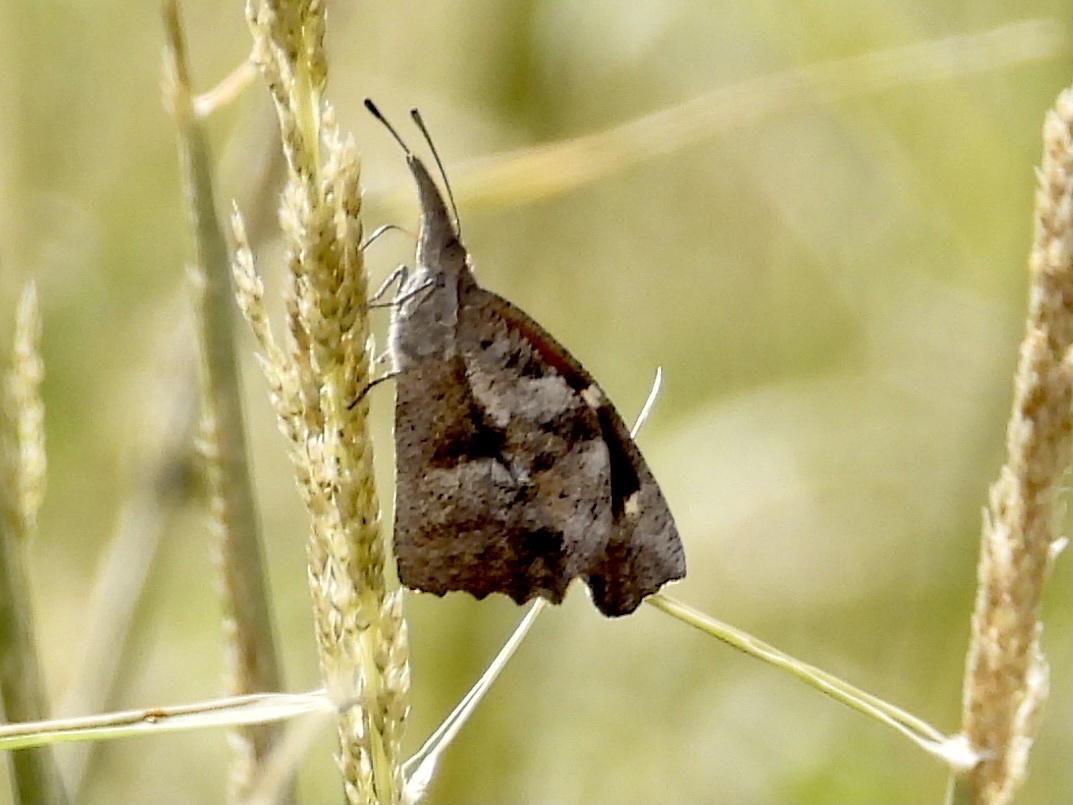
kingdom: Animalia
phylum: Arthropoda
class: Insecta
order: Lepidoptera
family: Nymphalidae
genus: Libytheana
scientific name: Libytheana carinenta
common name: American snout
